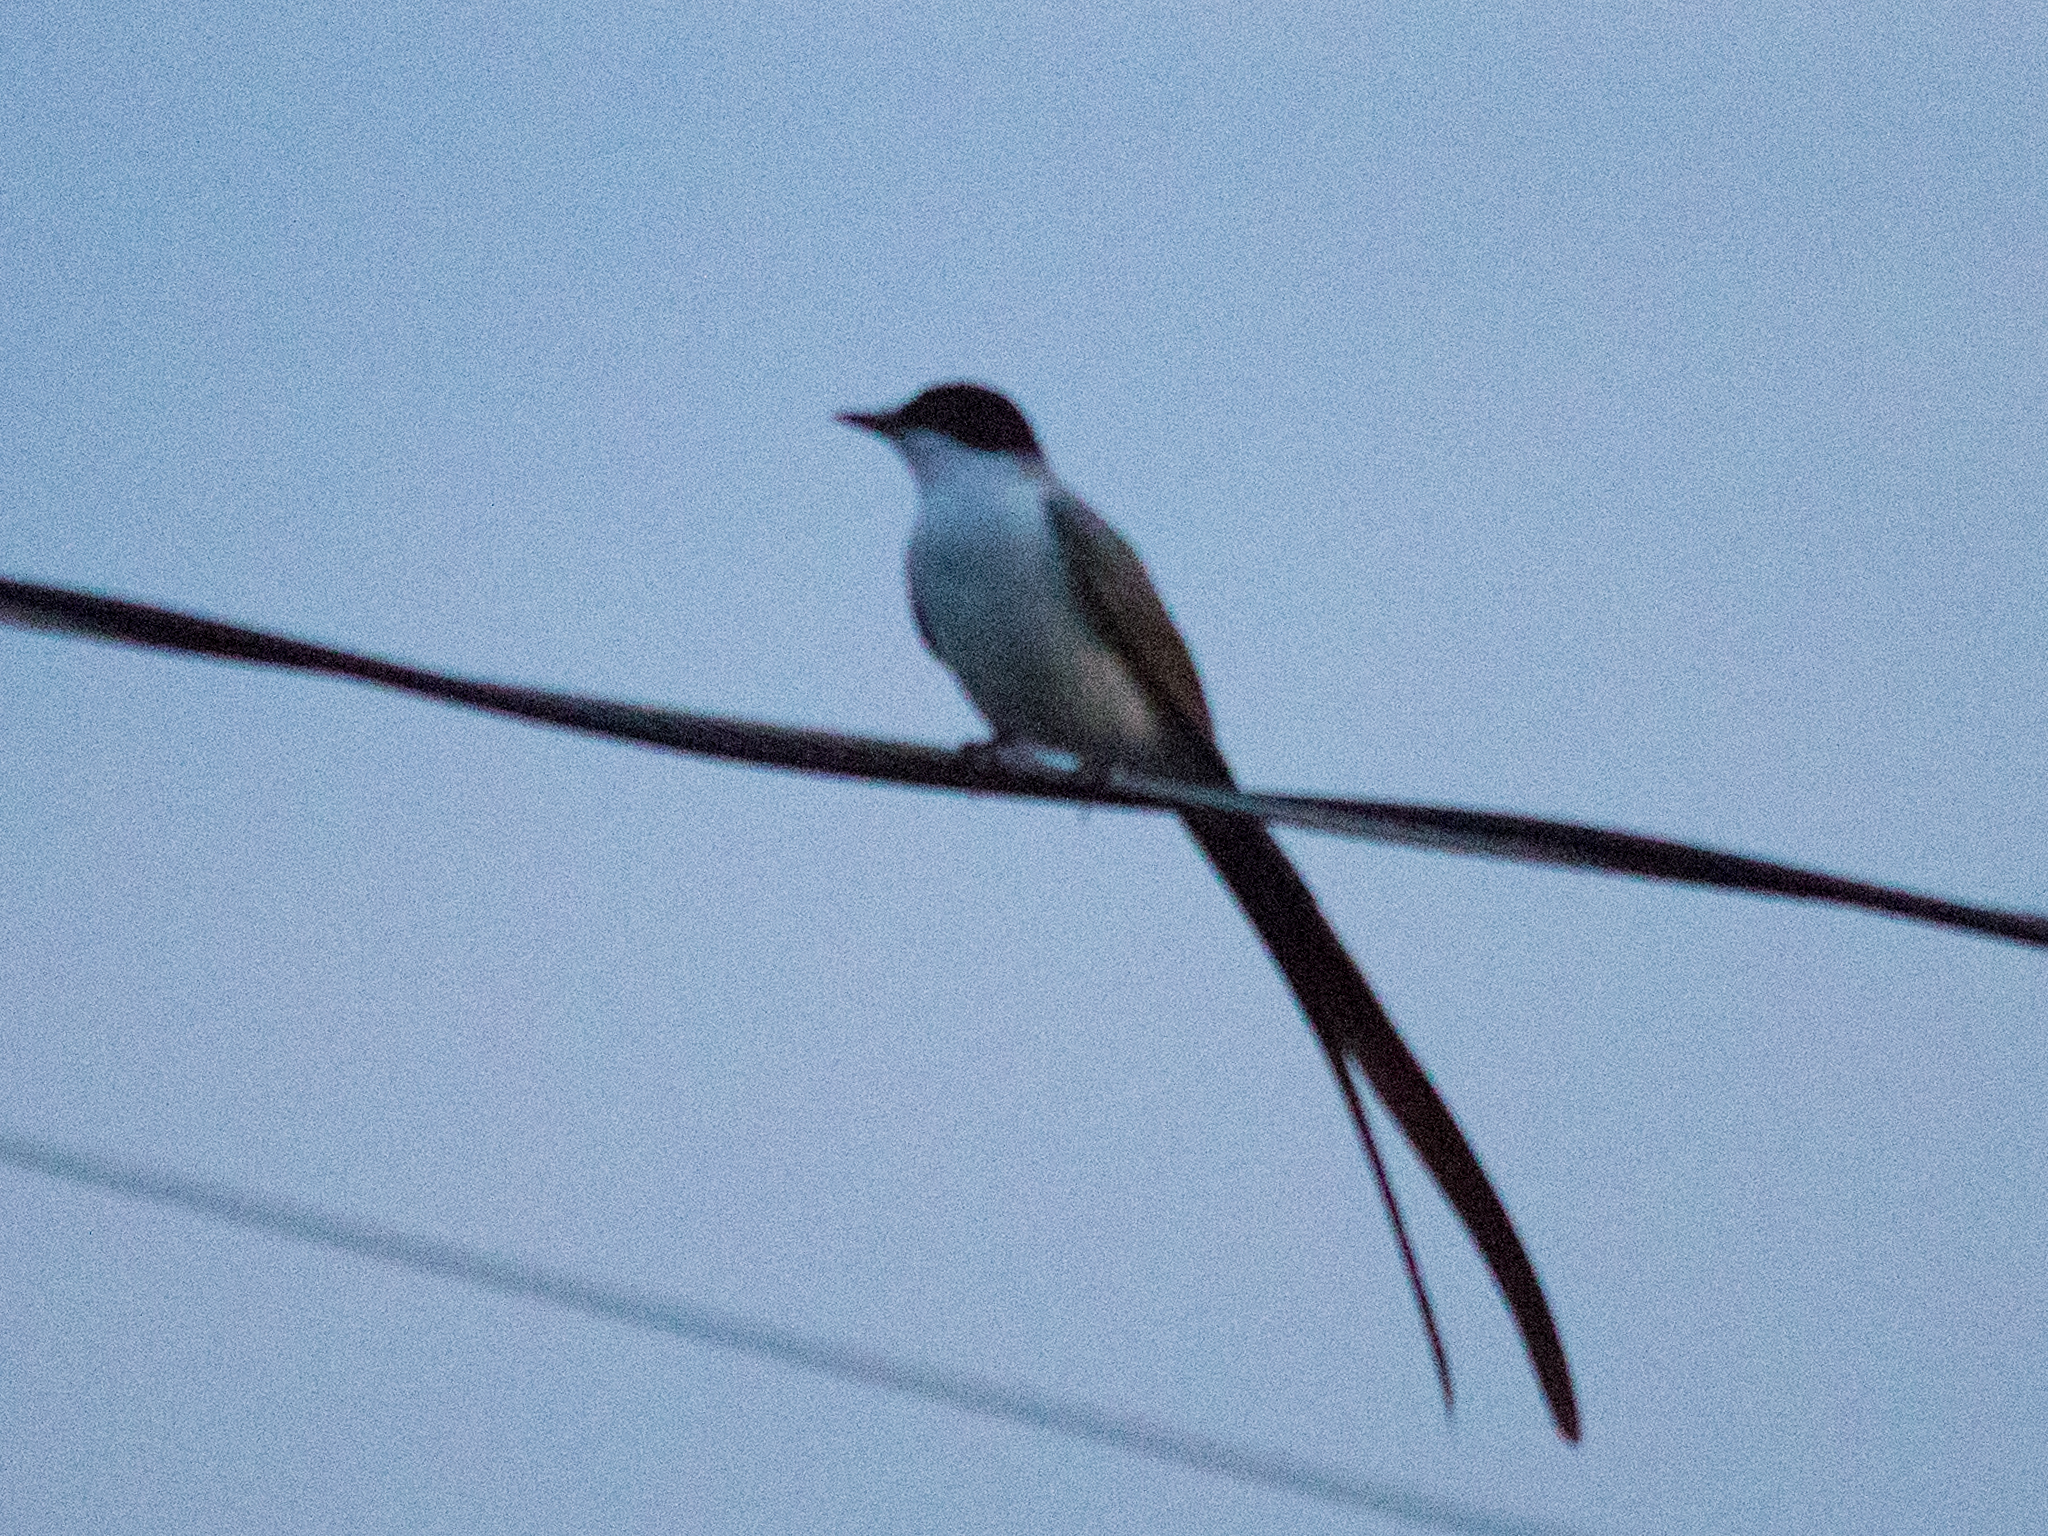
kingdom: Animalia
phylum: Chordata
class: Aves
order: Passeriformes
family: Tyrannidae
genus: Tyrannus
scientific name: Tyrannus savana
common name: Fork-tailed flycatcher
